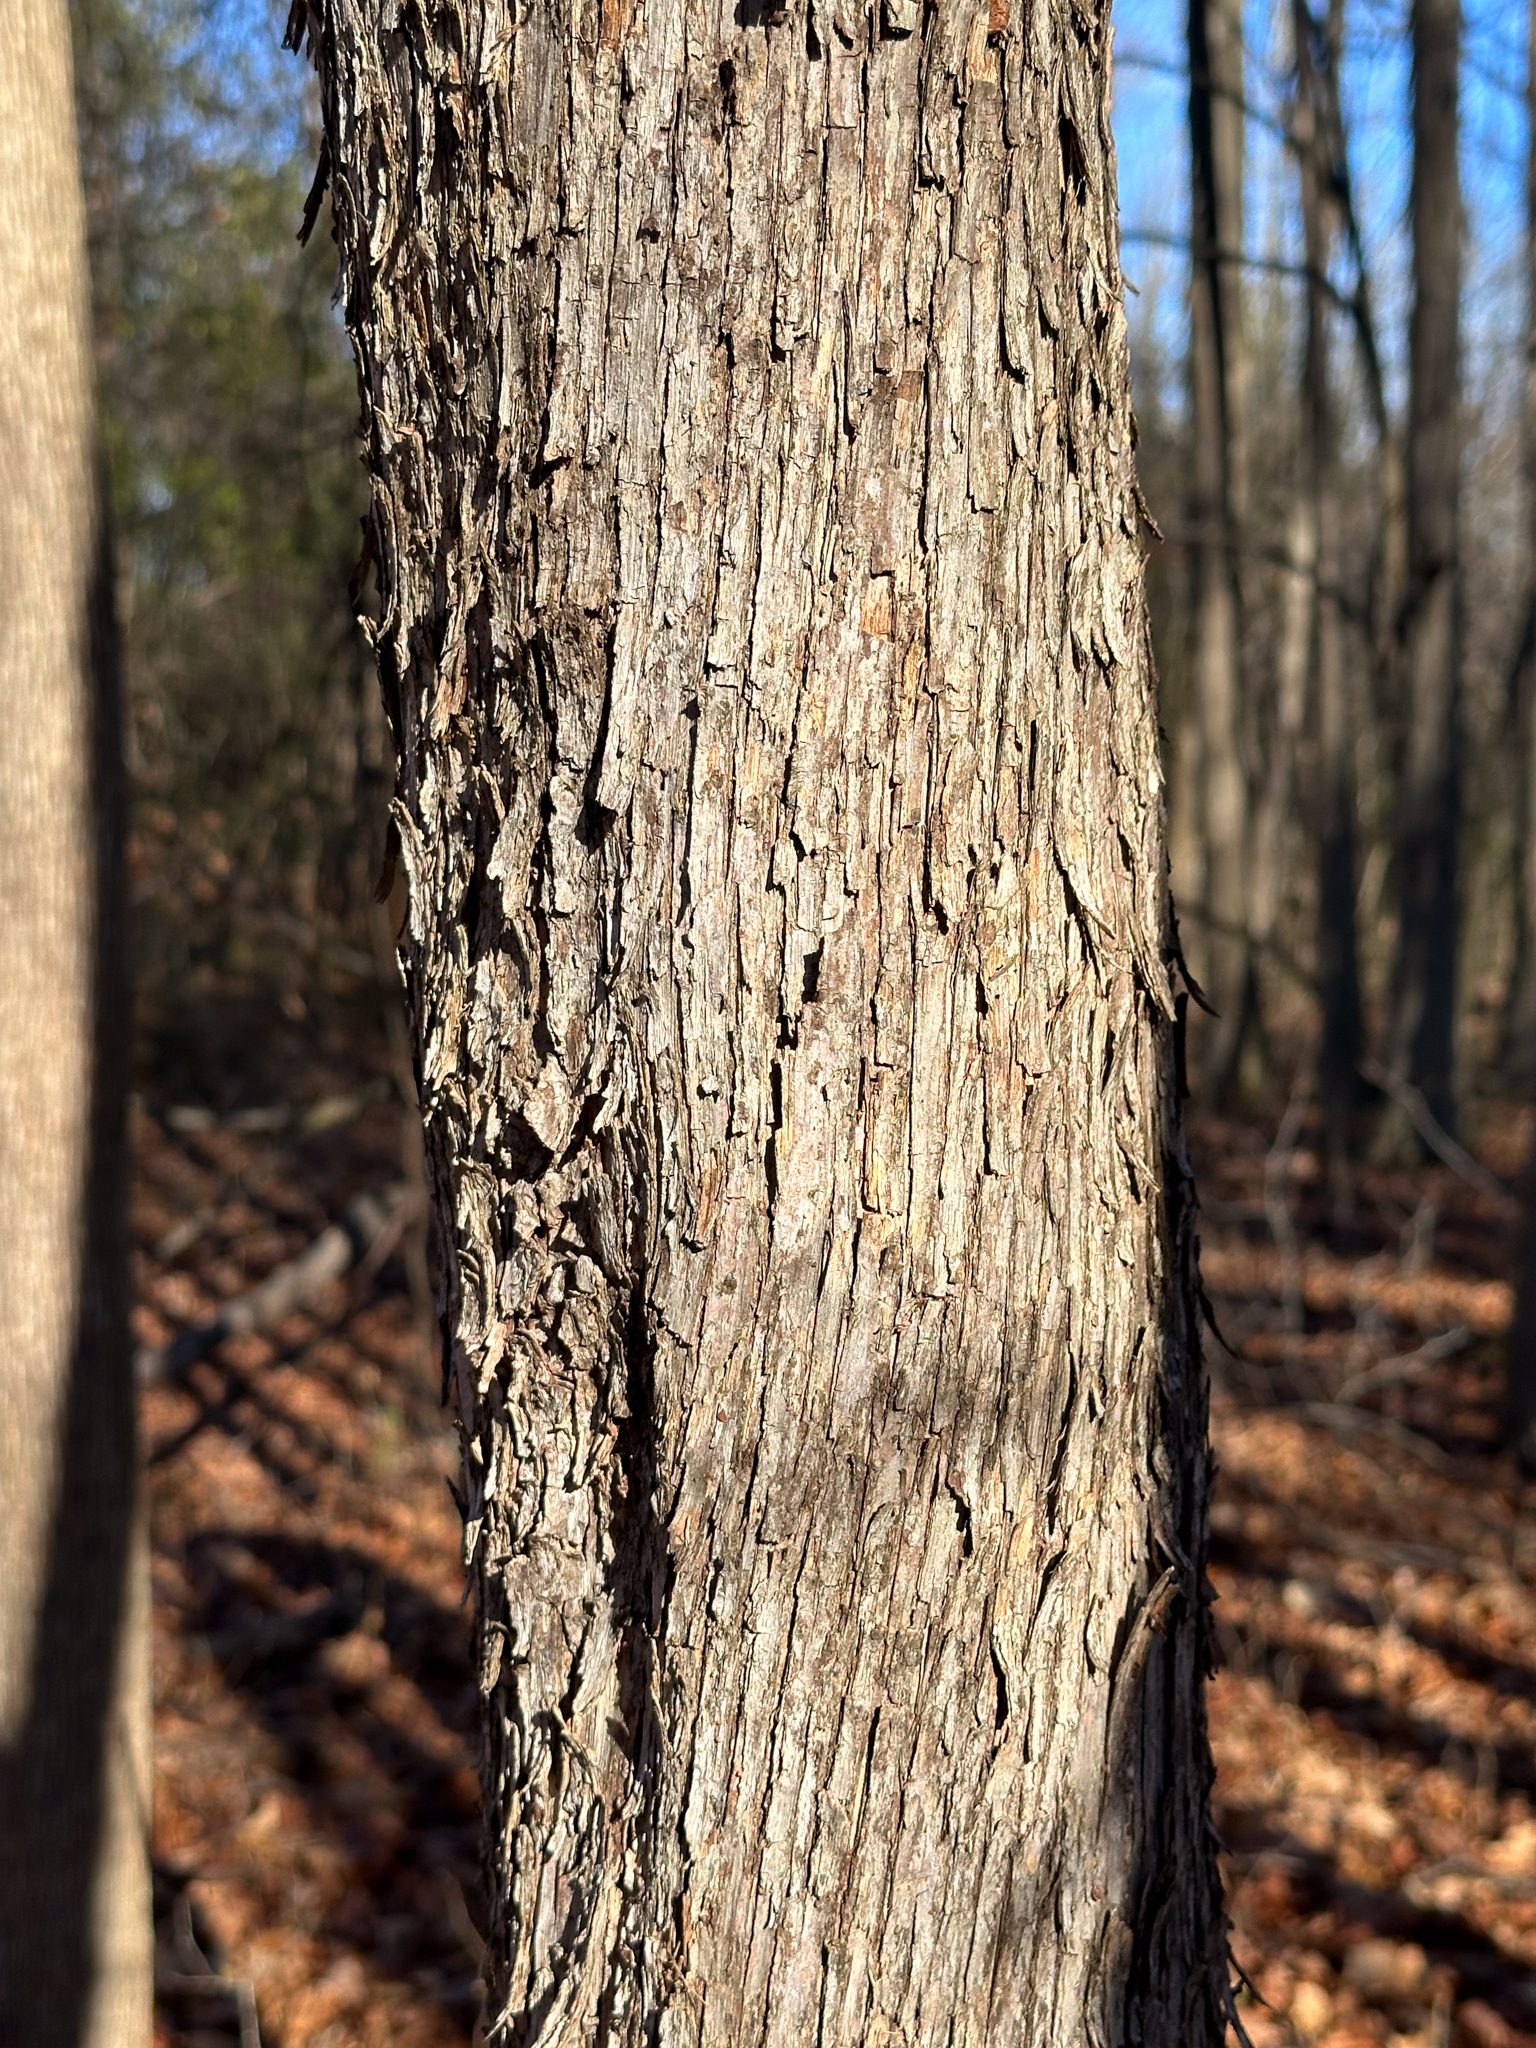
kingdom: Plantae
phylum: Tracheophyta
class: Magnoliopsida
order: Fagales
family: Betulaceae
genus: Ostrya
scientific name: Ostrya virginiana
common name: Ironwood
